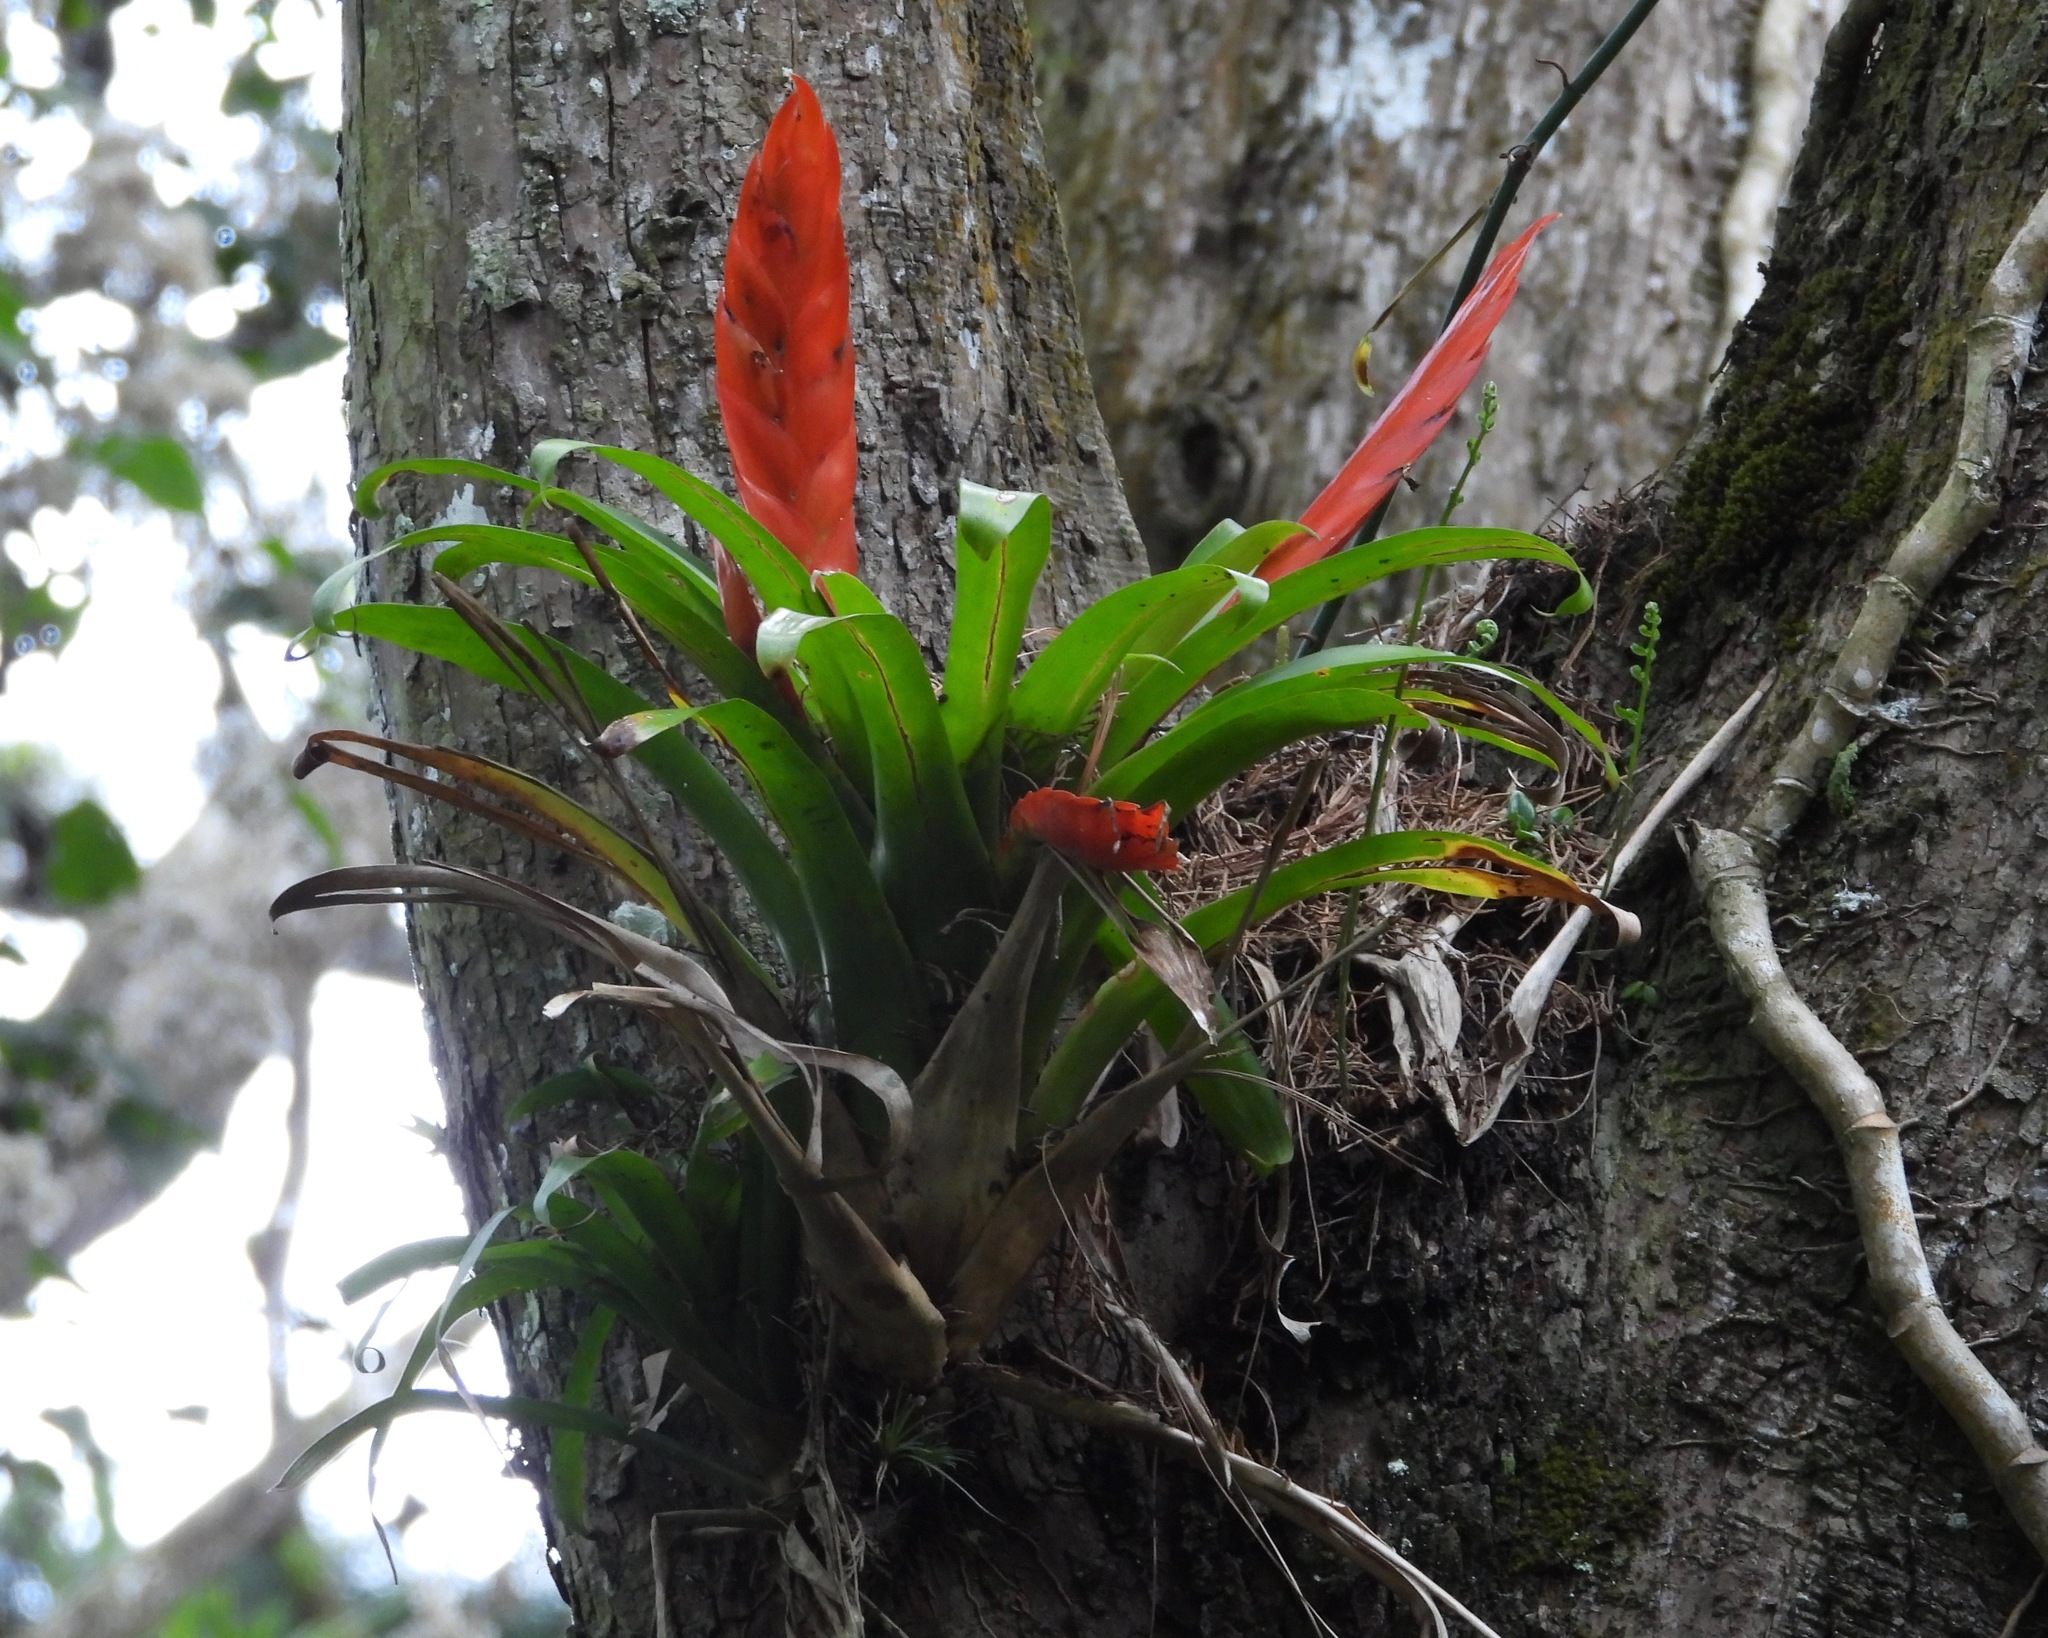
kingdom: Plantae
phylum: Tracheophyta
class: Liliopsida
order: Poales
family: Bromeliaceae
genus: Tillandsia
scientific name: Tillandsia multicaulis
